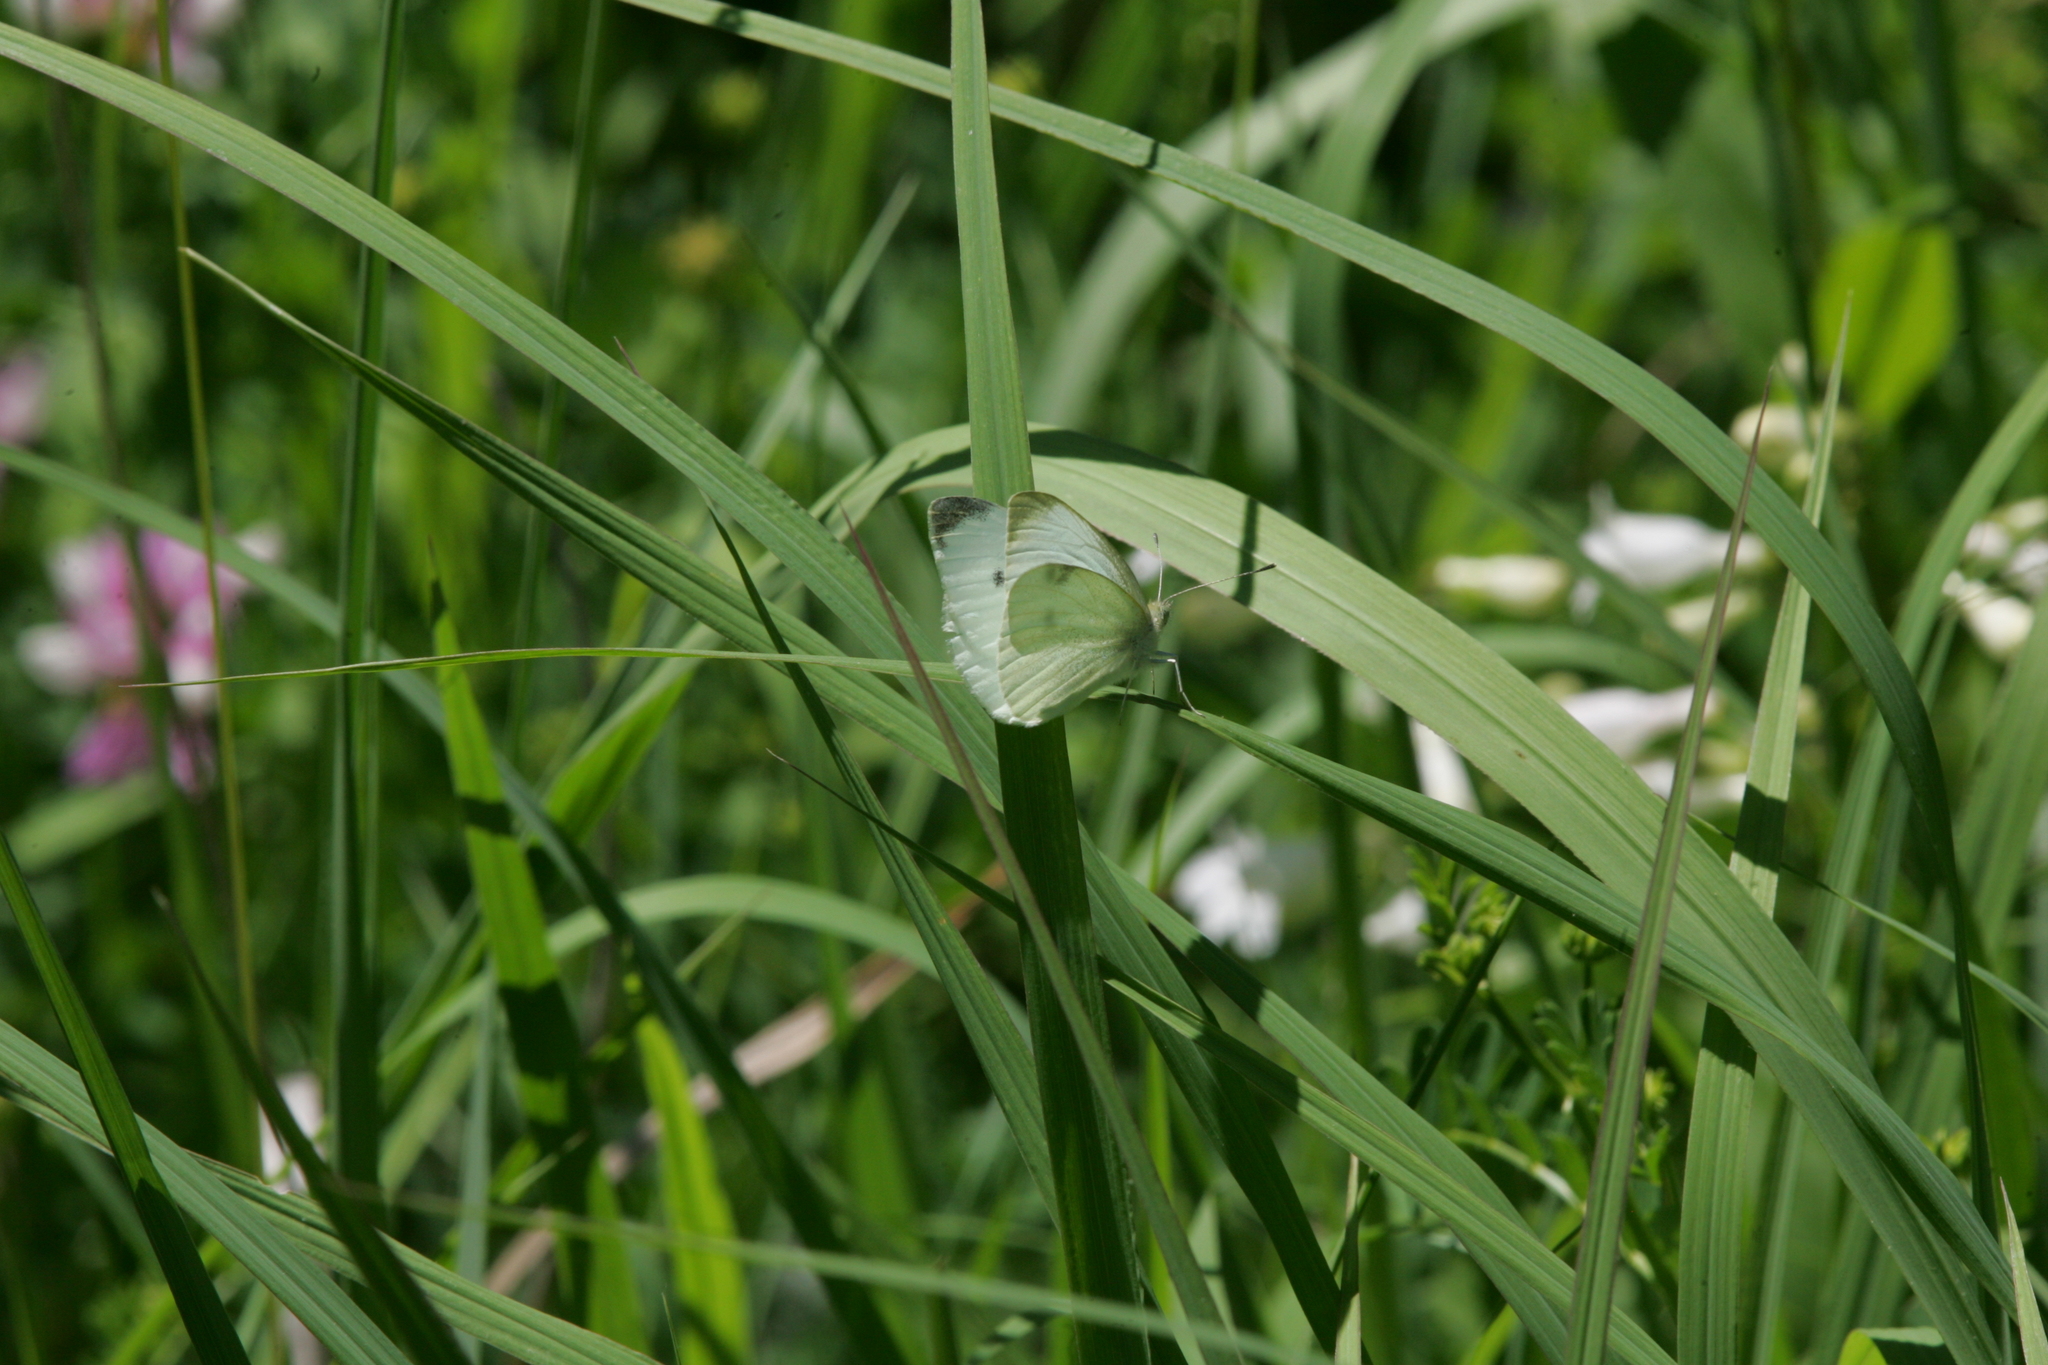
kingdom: Animalia
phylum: Arthropoda
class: Insecta
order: Lepidoptera
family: Pieridae
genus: Pieris
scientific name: Pieris rapae
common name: Small white
